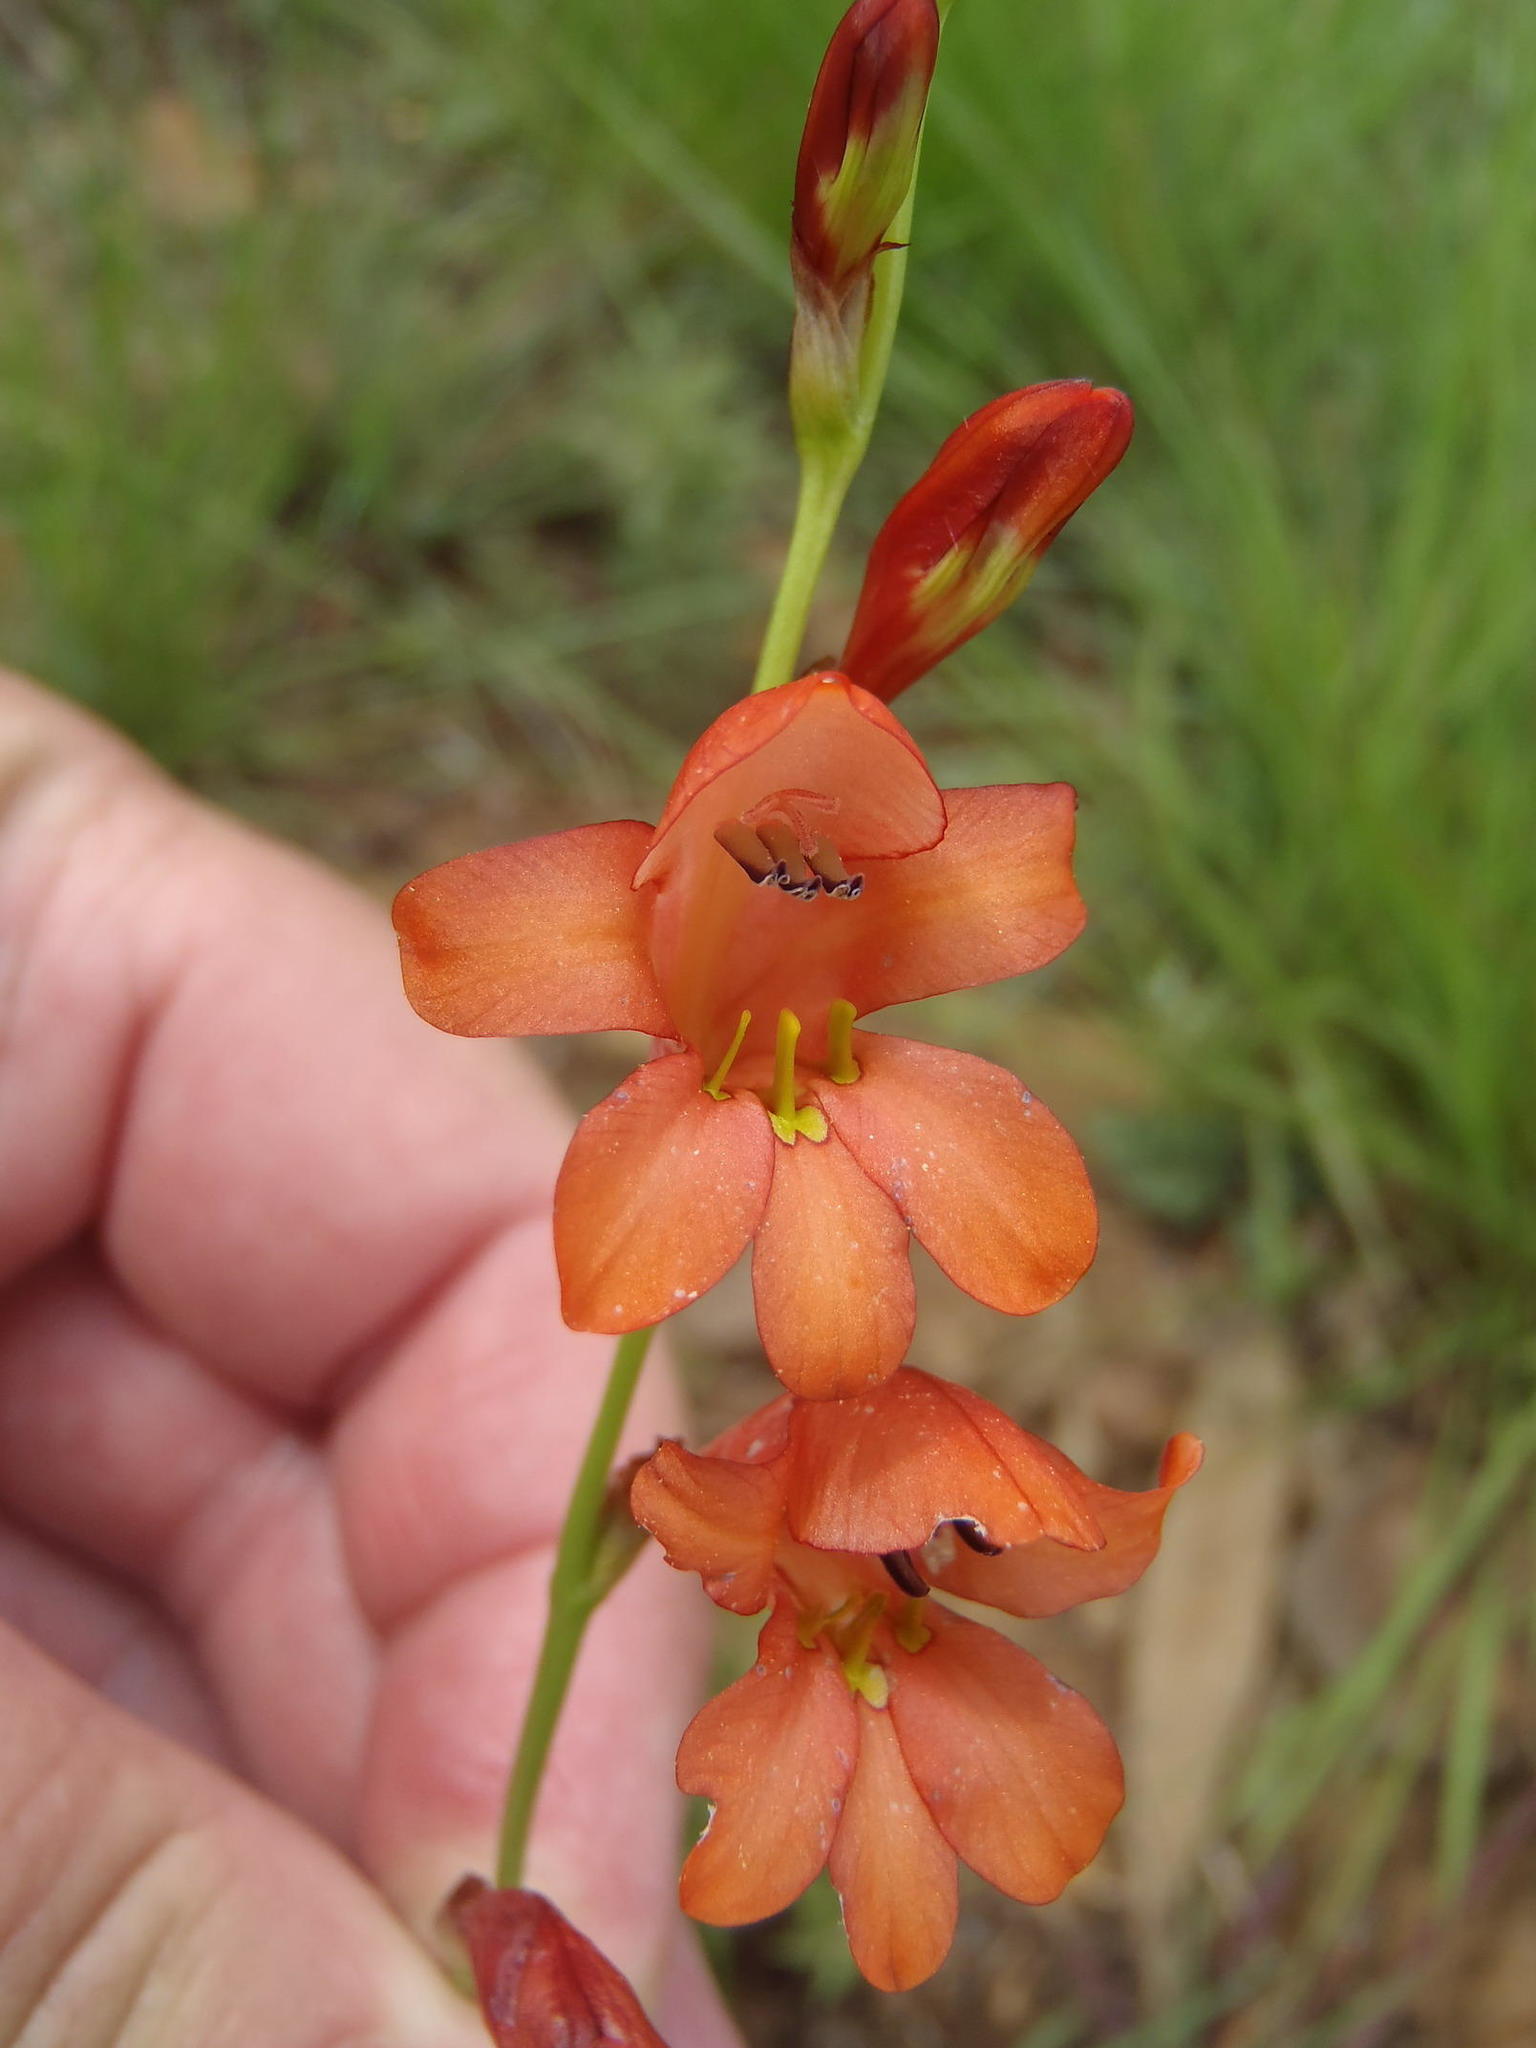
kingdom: Plantae
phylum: Tracheophyta
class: Liliopsida
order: Asparagales
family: Iridaceae
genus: Tritonia
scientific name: Tritonia nelsonii
